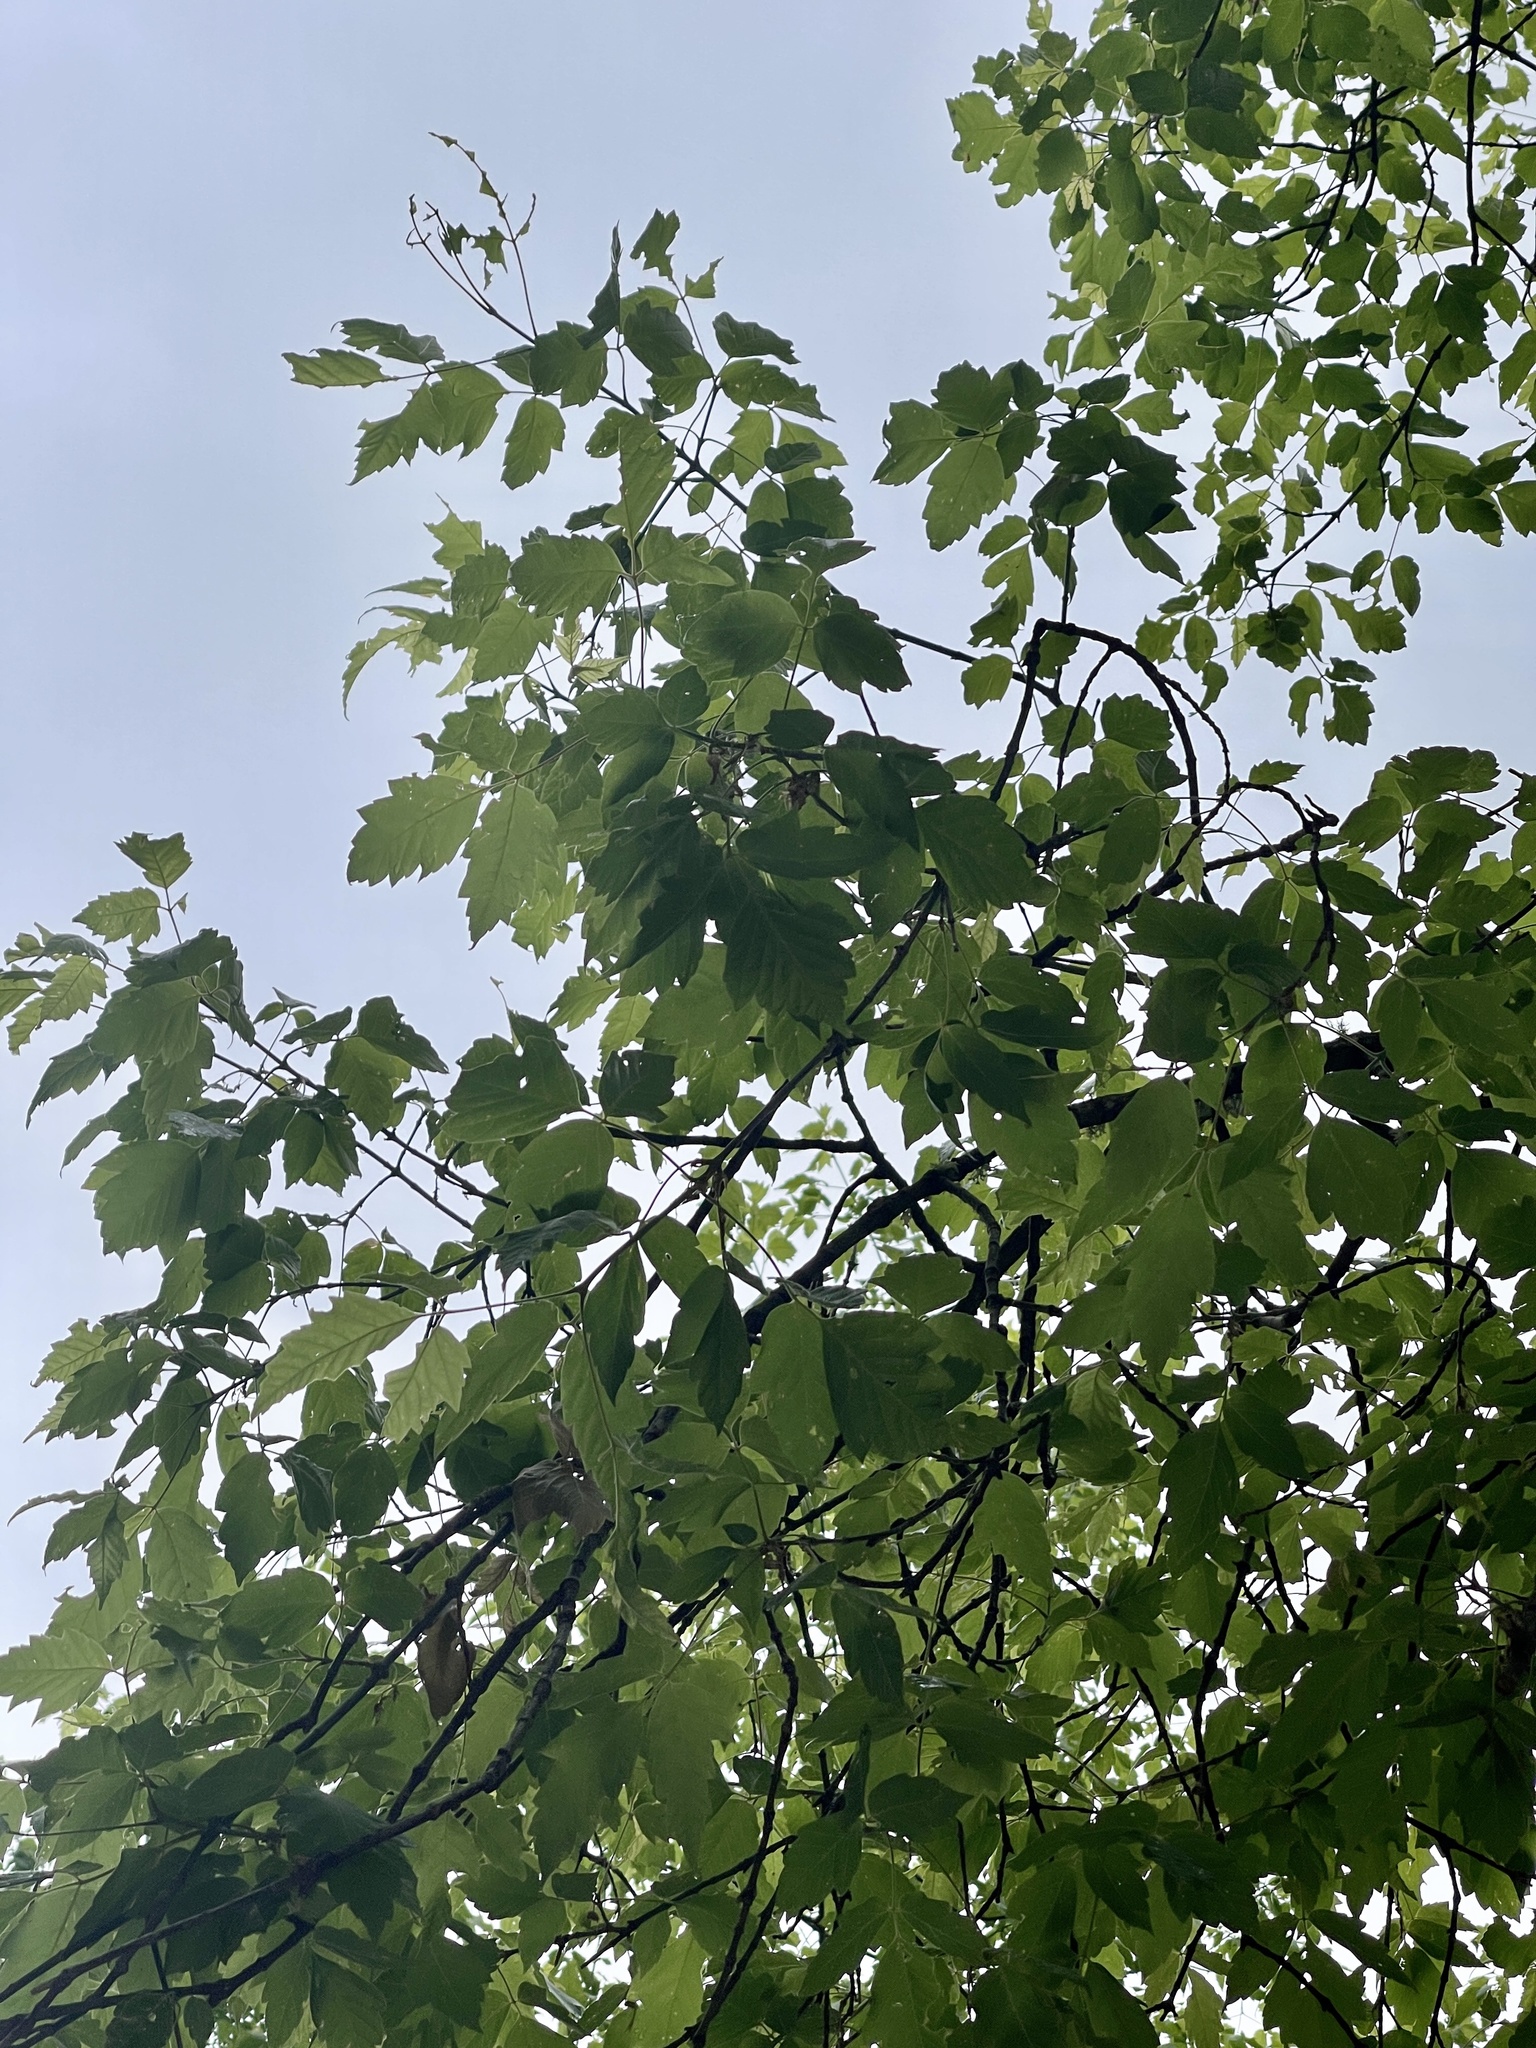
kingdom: Plantae
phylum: Tracheophyta
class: Magnoliopsida
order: Sapindales
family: Sapindaceae
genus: Acer
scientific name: Acer negundo
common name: Ashleaf maple
